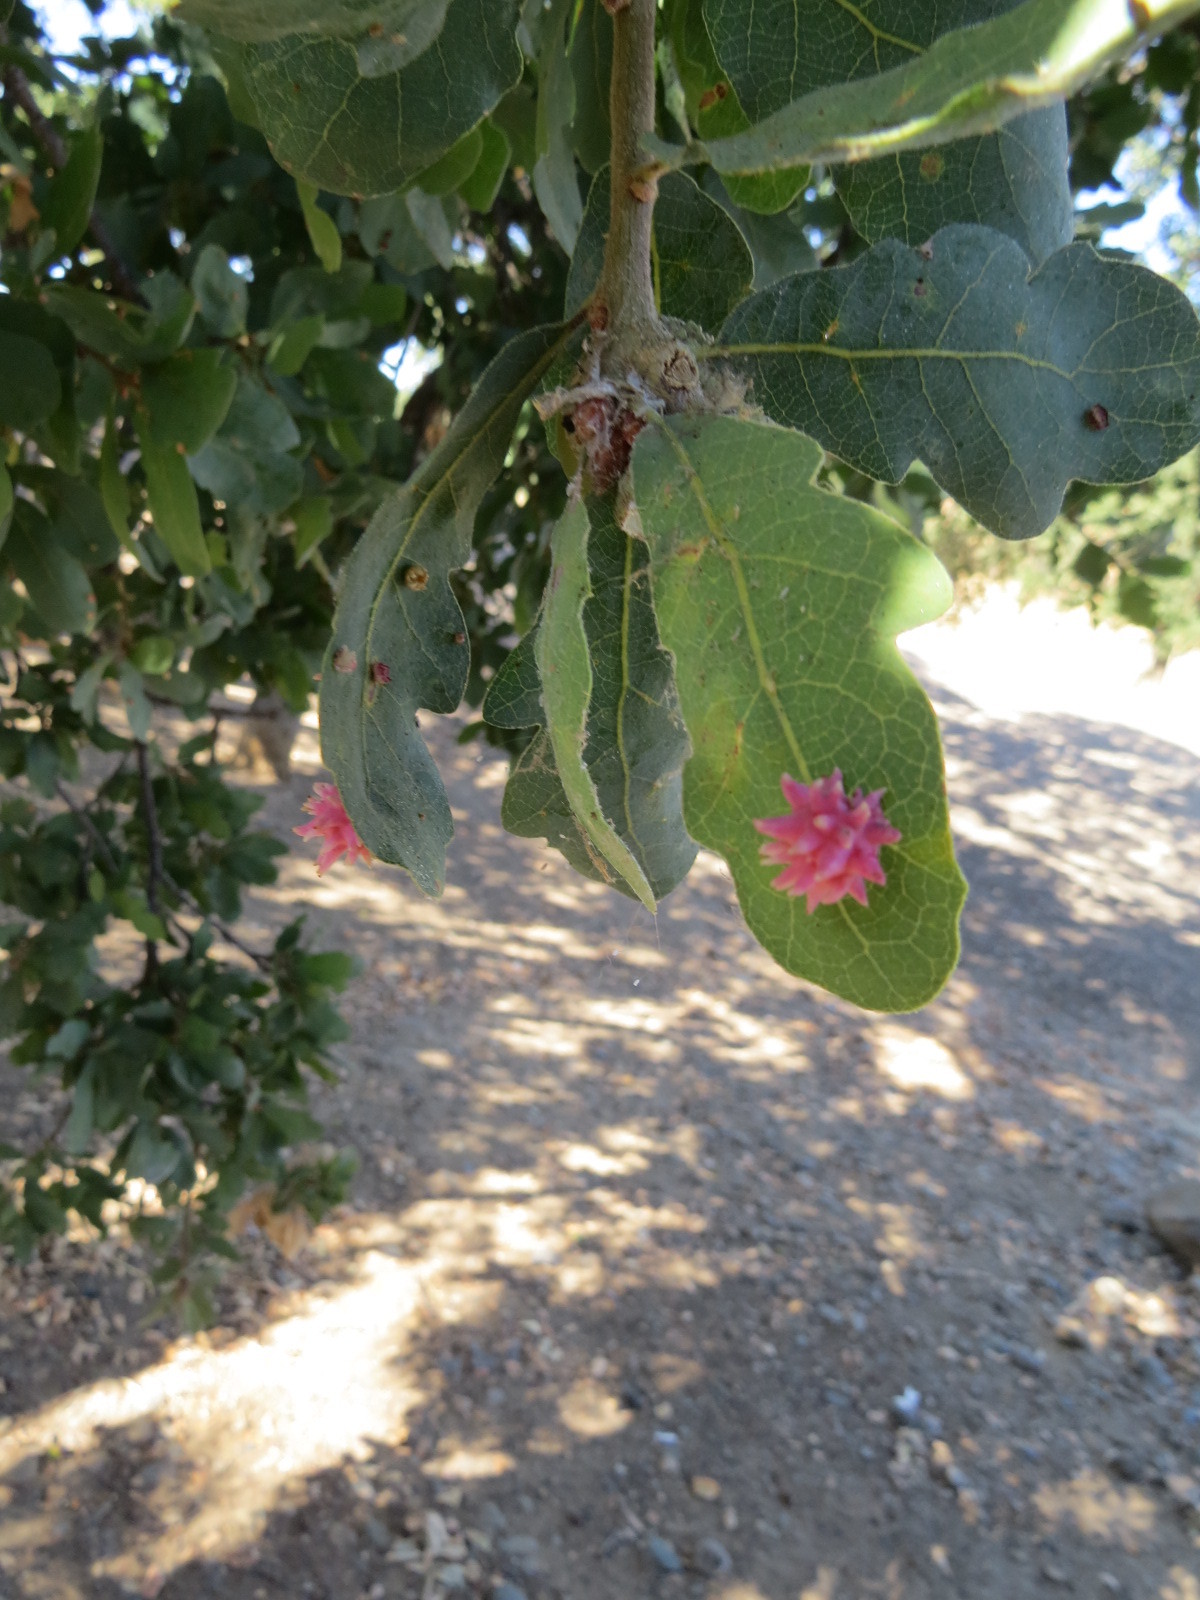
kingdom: Animalia
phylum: Arthropoda
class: Insecta
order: Hymenoptera
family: Cynipidae
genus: Cynips
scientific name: Cynips
